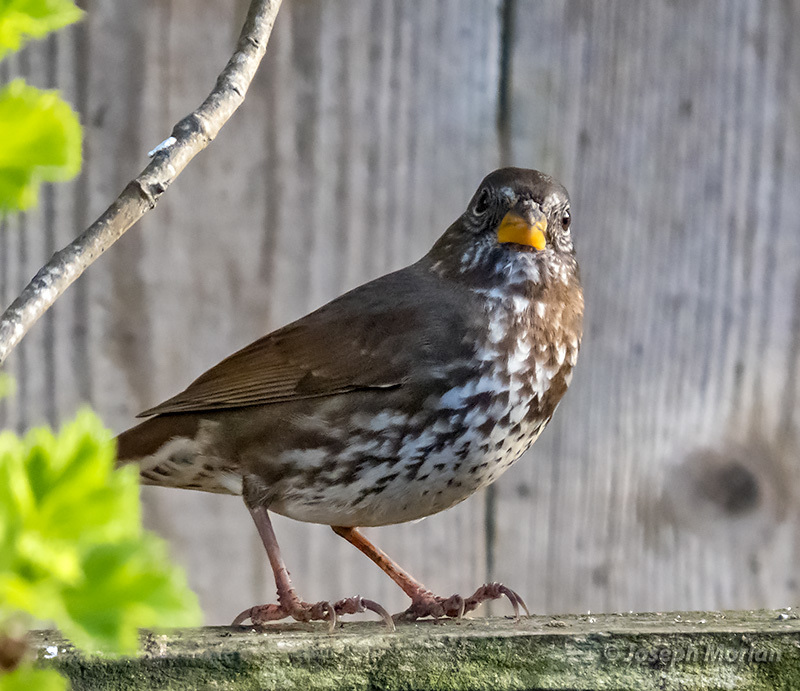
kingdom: Animalia
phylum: Chordata
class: Aves
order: Passeriformes
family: Passerellidae
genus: Passerella
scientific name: Passerella iliaca
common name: Fox sparrow
